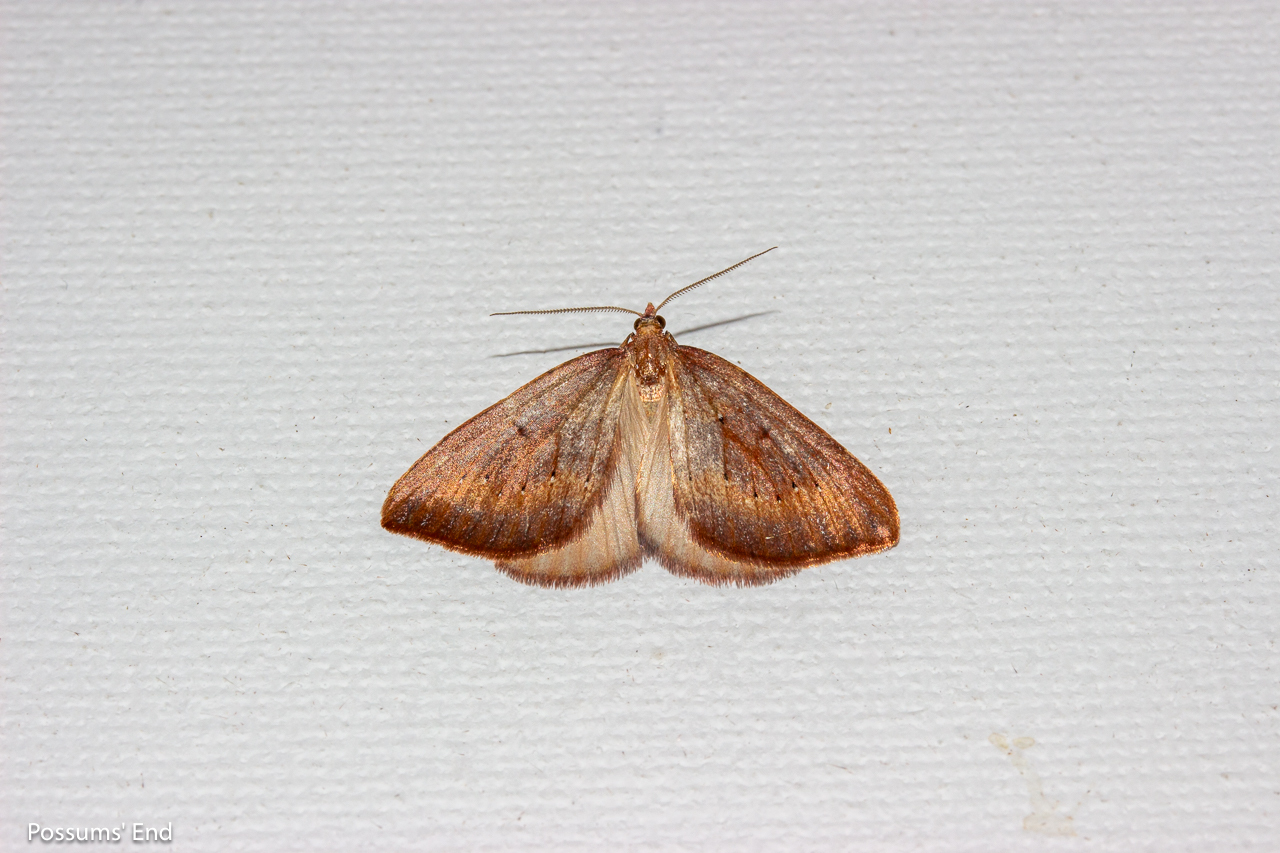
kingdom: Animalia
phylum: Arthropoda
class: Insecta
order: Lepidoptera
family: Geometridae
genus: Xanthorhoe
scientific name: Xanthorhoe occulta
